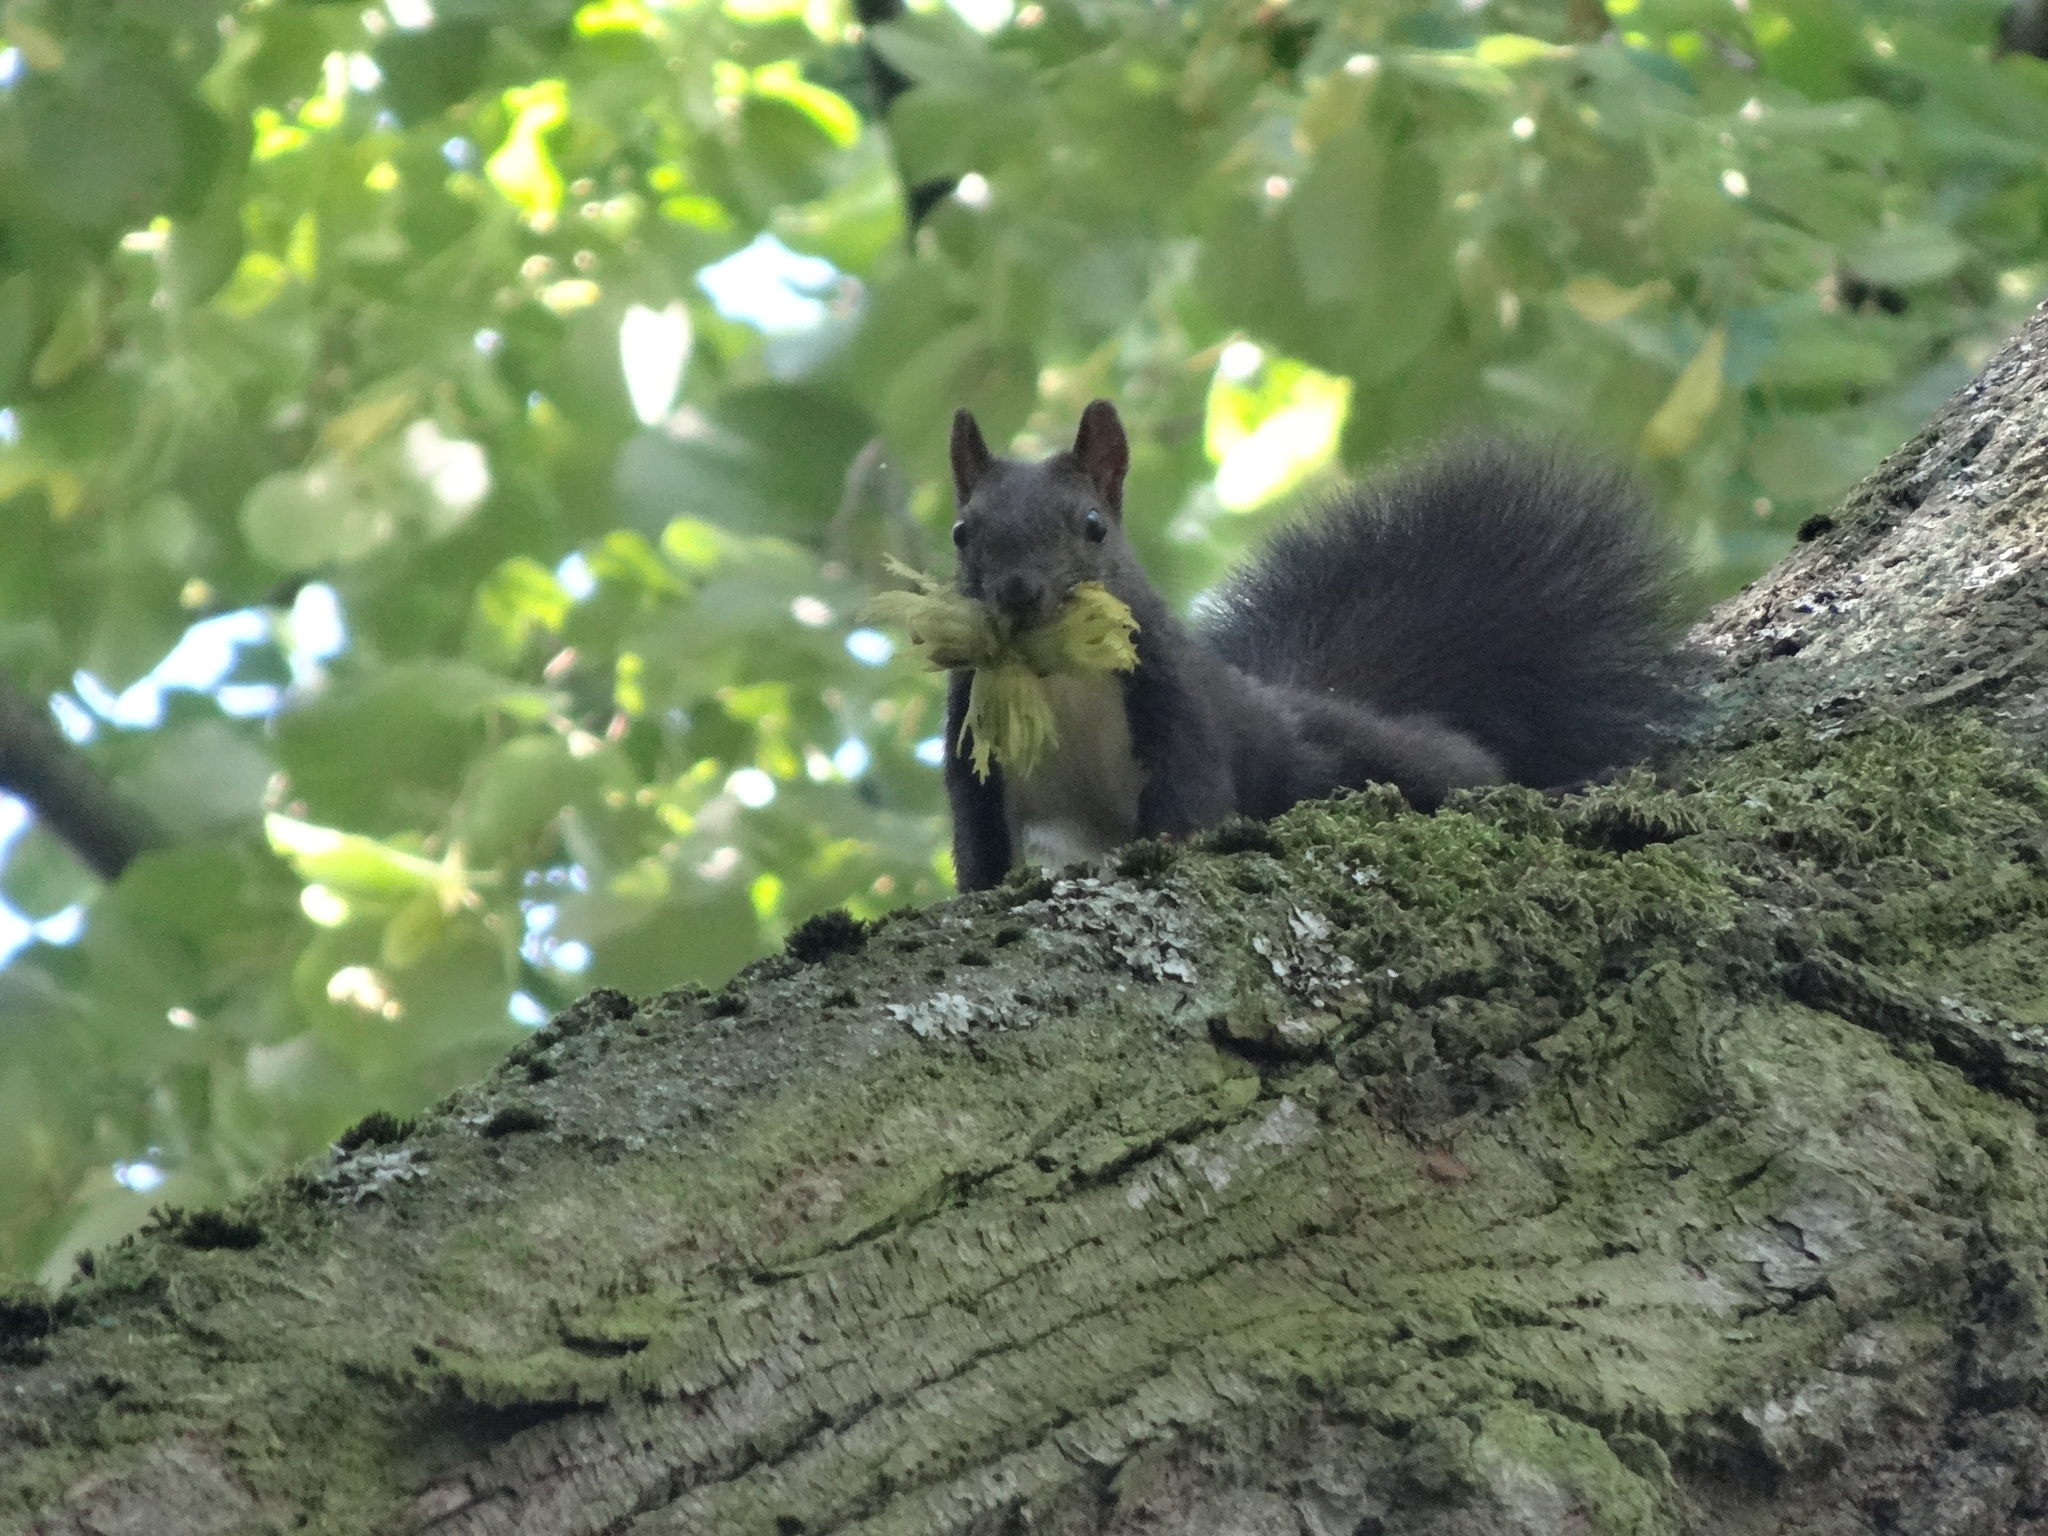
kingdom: Animalia
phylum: Chordata
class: Mammalia
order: Rodentia
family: Sciuridae
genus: Sciurus
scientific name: Sciurus vulgaris
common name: Eurasian red squirrel
